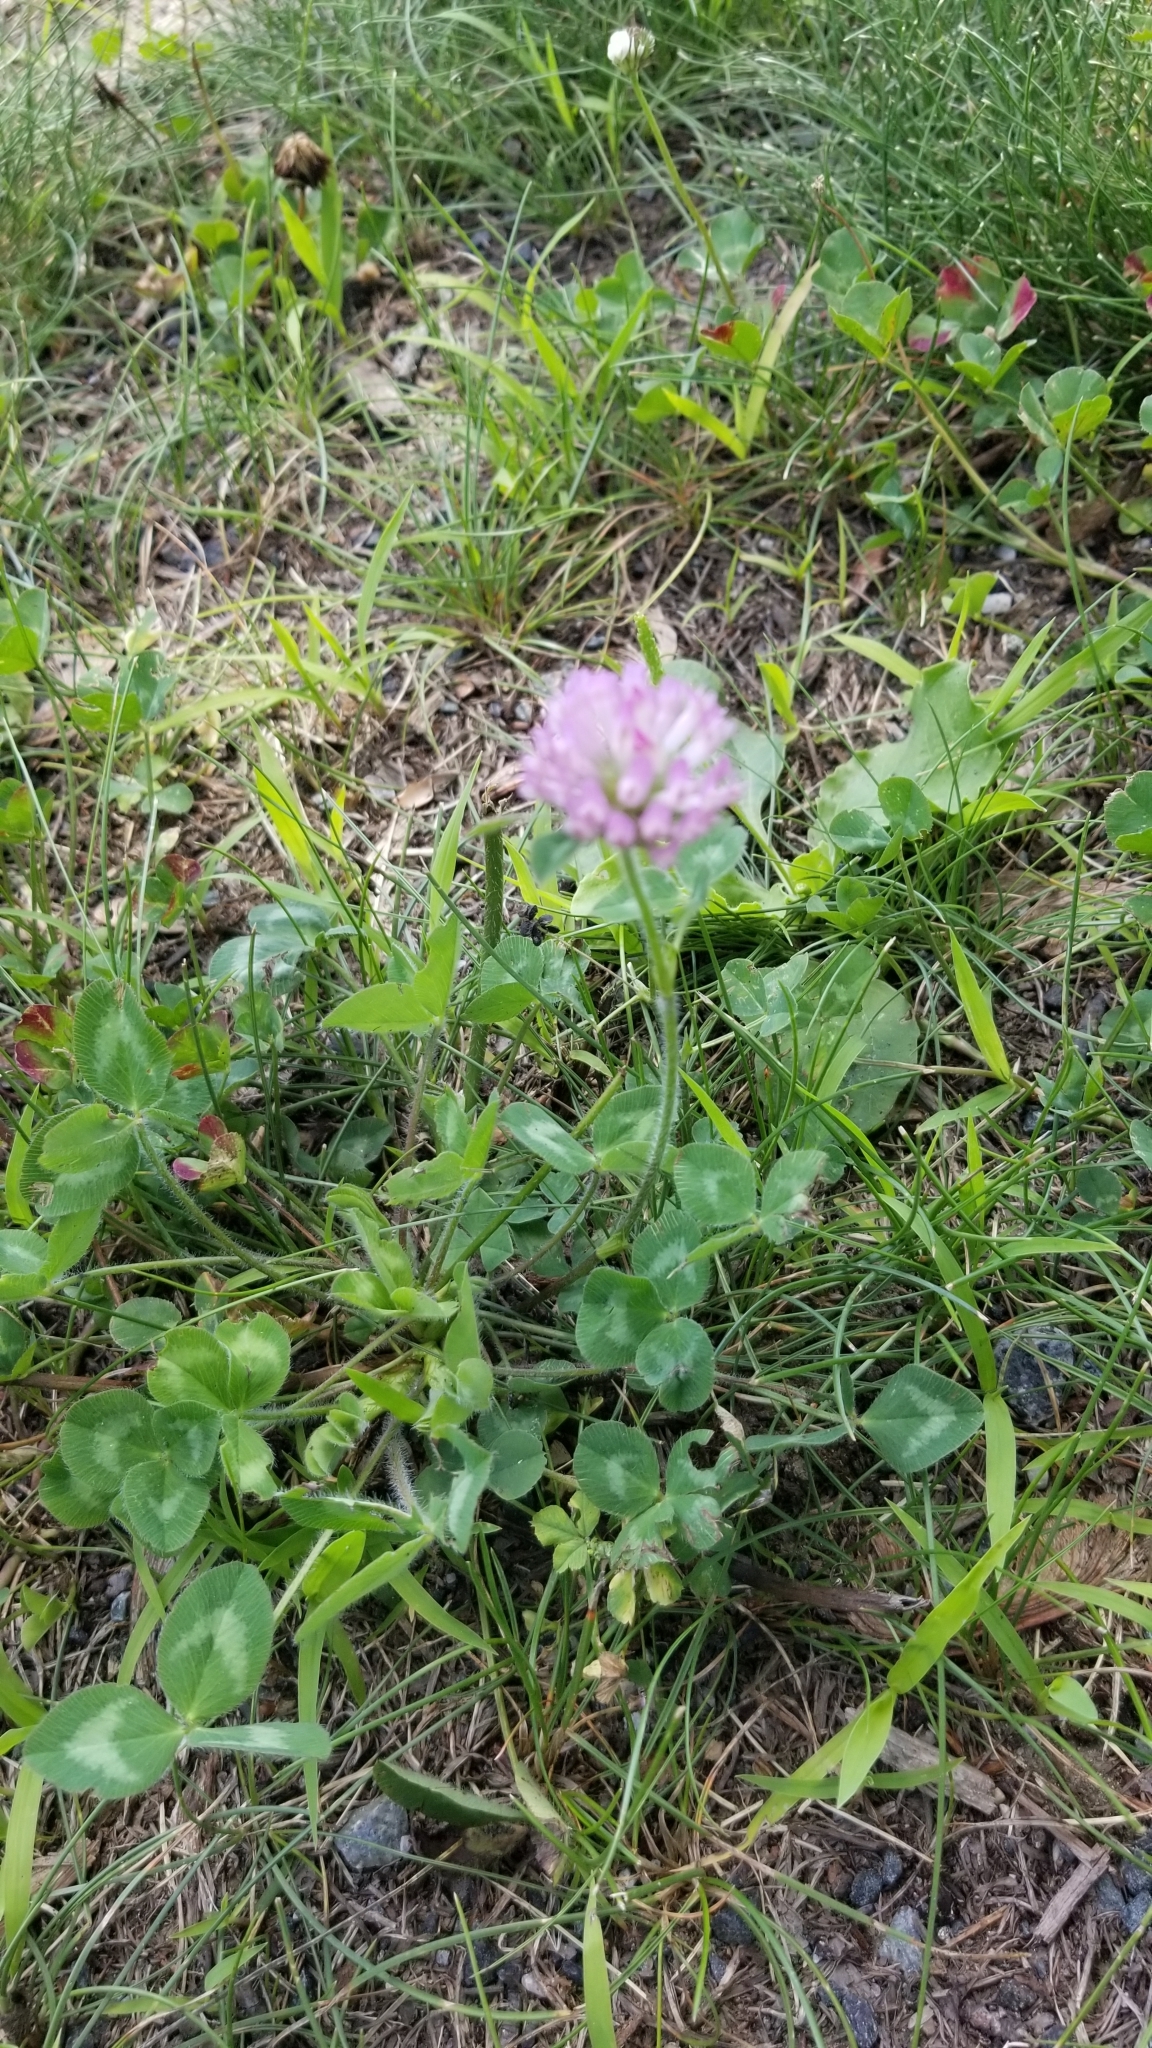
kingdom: Plantae
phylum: Tracheophyta
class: Magnoliopsida
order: Fabales
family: Fabaceae
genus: Trifolium
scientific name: Trifolium pratense
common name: Red clover
